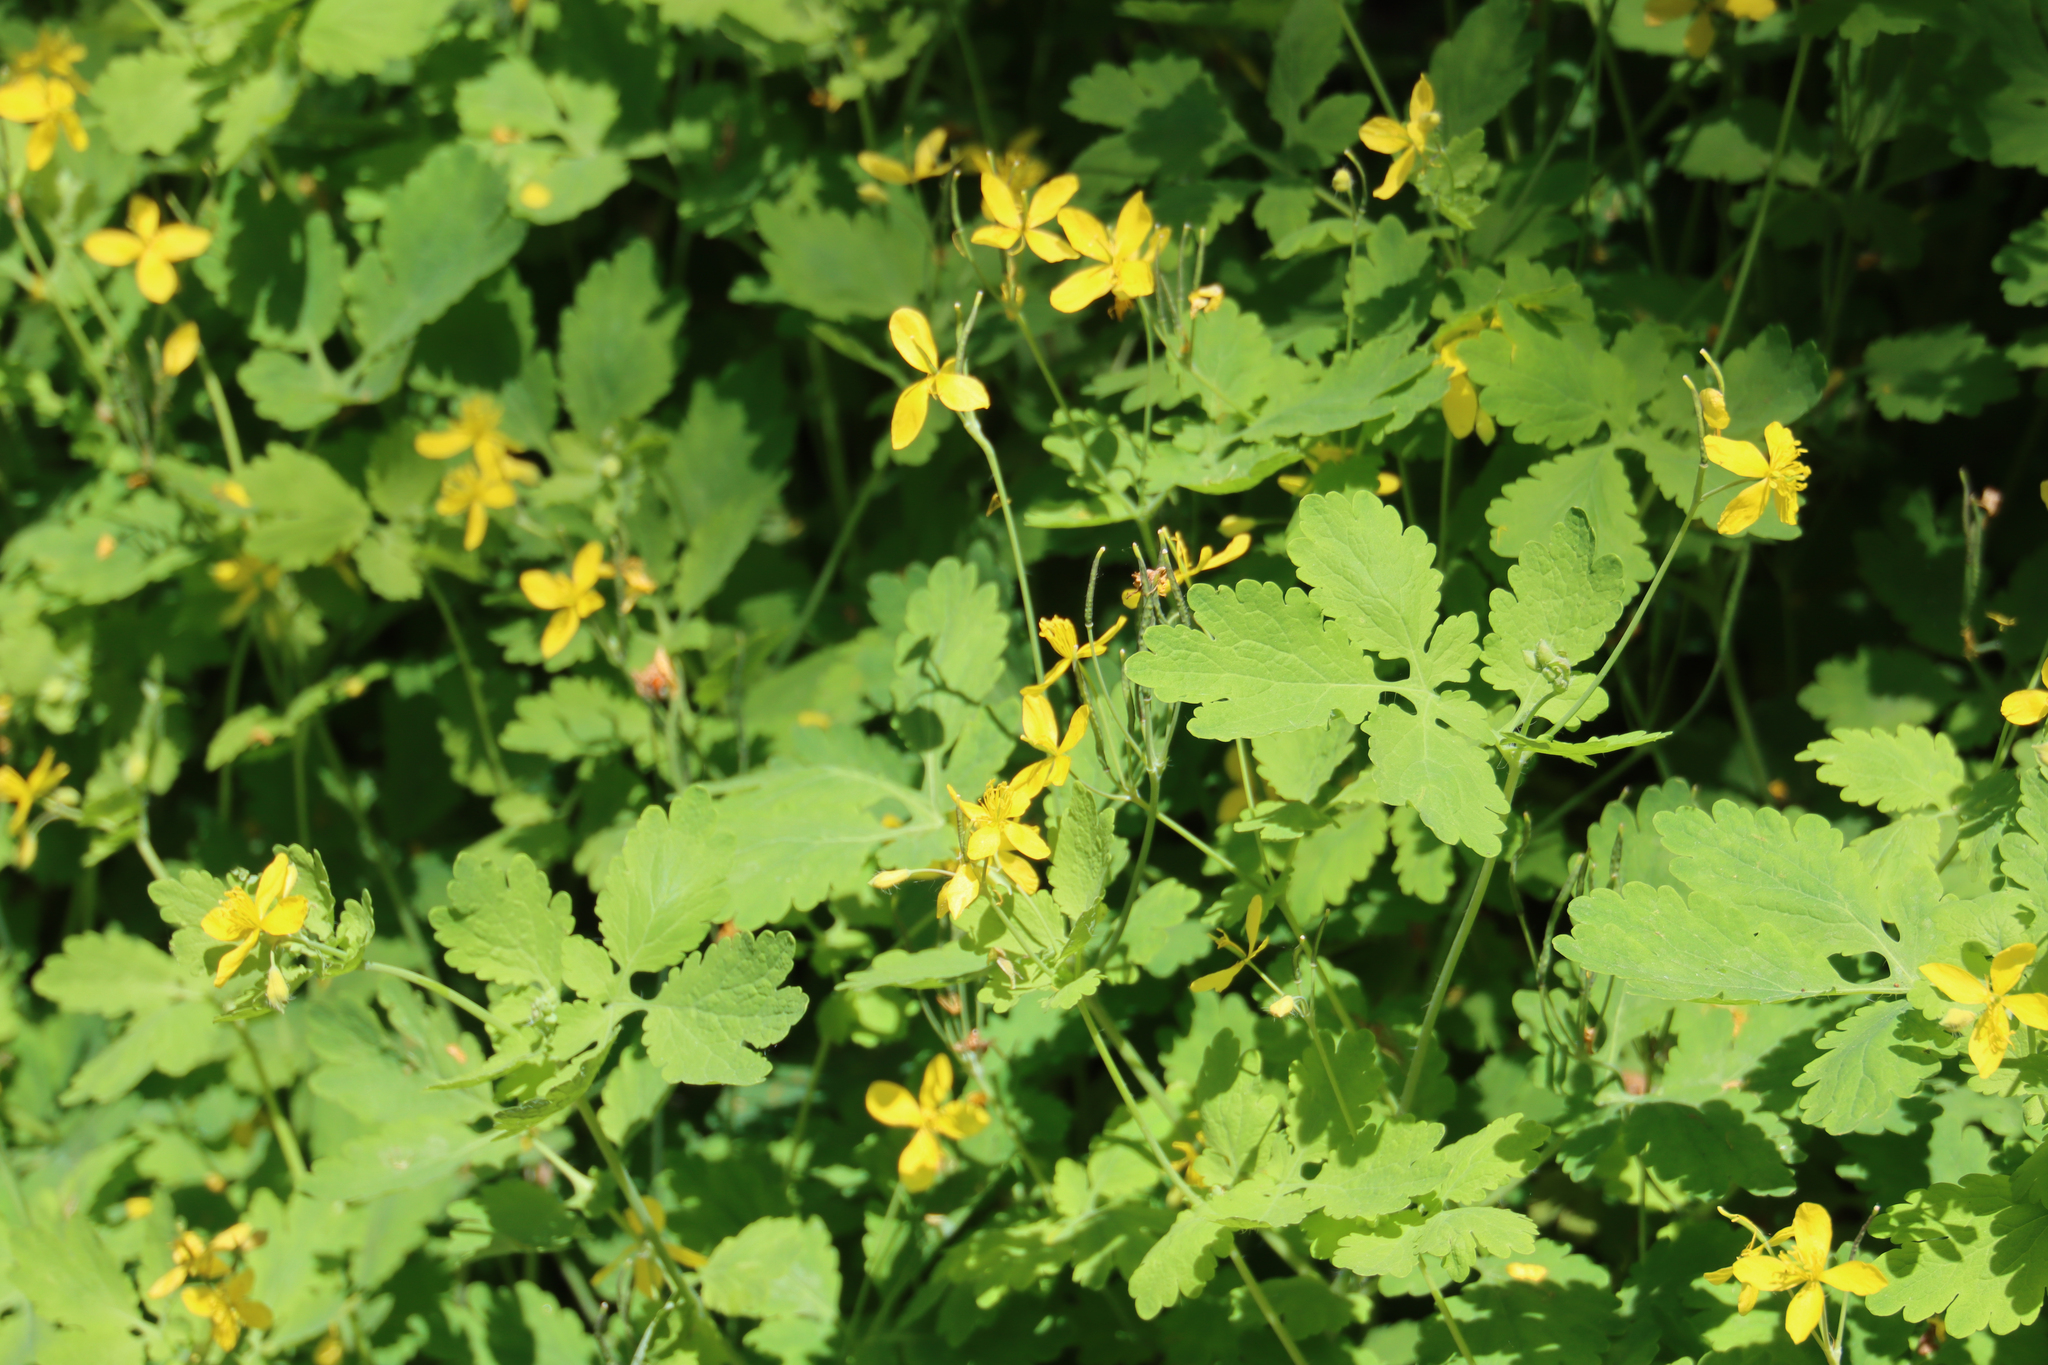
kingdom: Plantae
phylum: Tracheophyta
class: Magnoliopsida
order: Ranunculales
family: Papaveraceae
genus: Chelidonium
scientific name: Chelidonium majus
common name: Greater celandine
